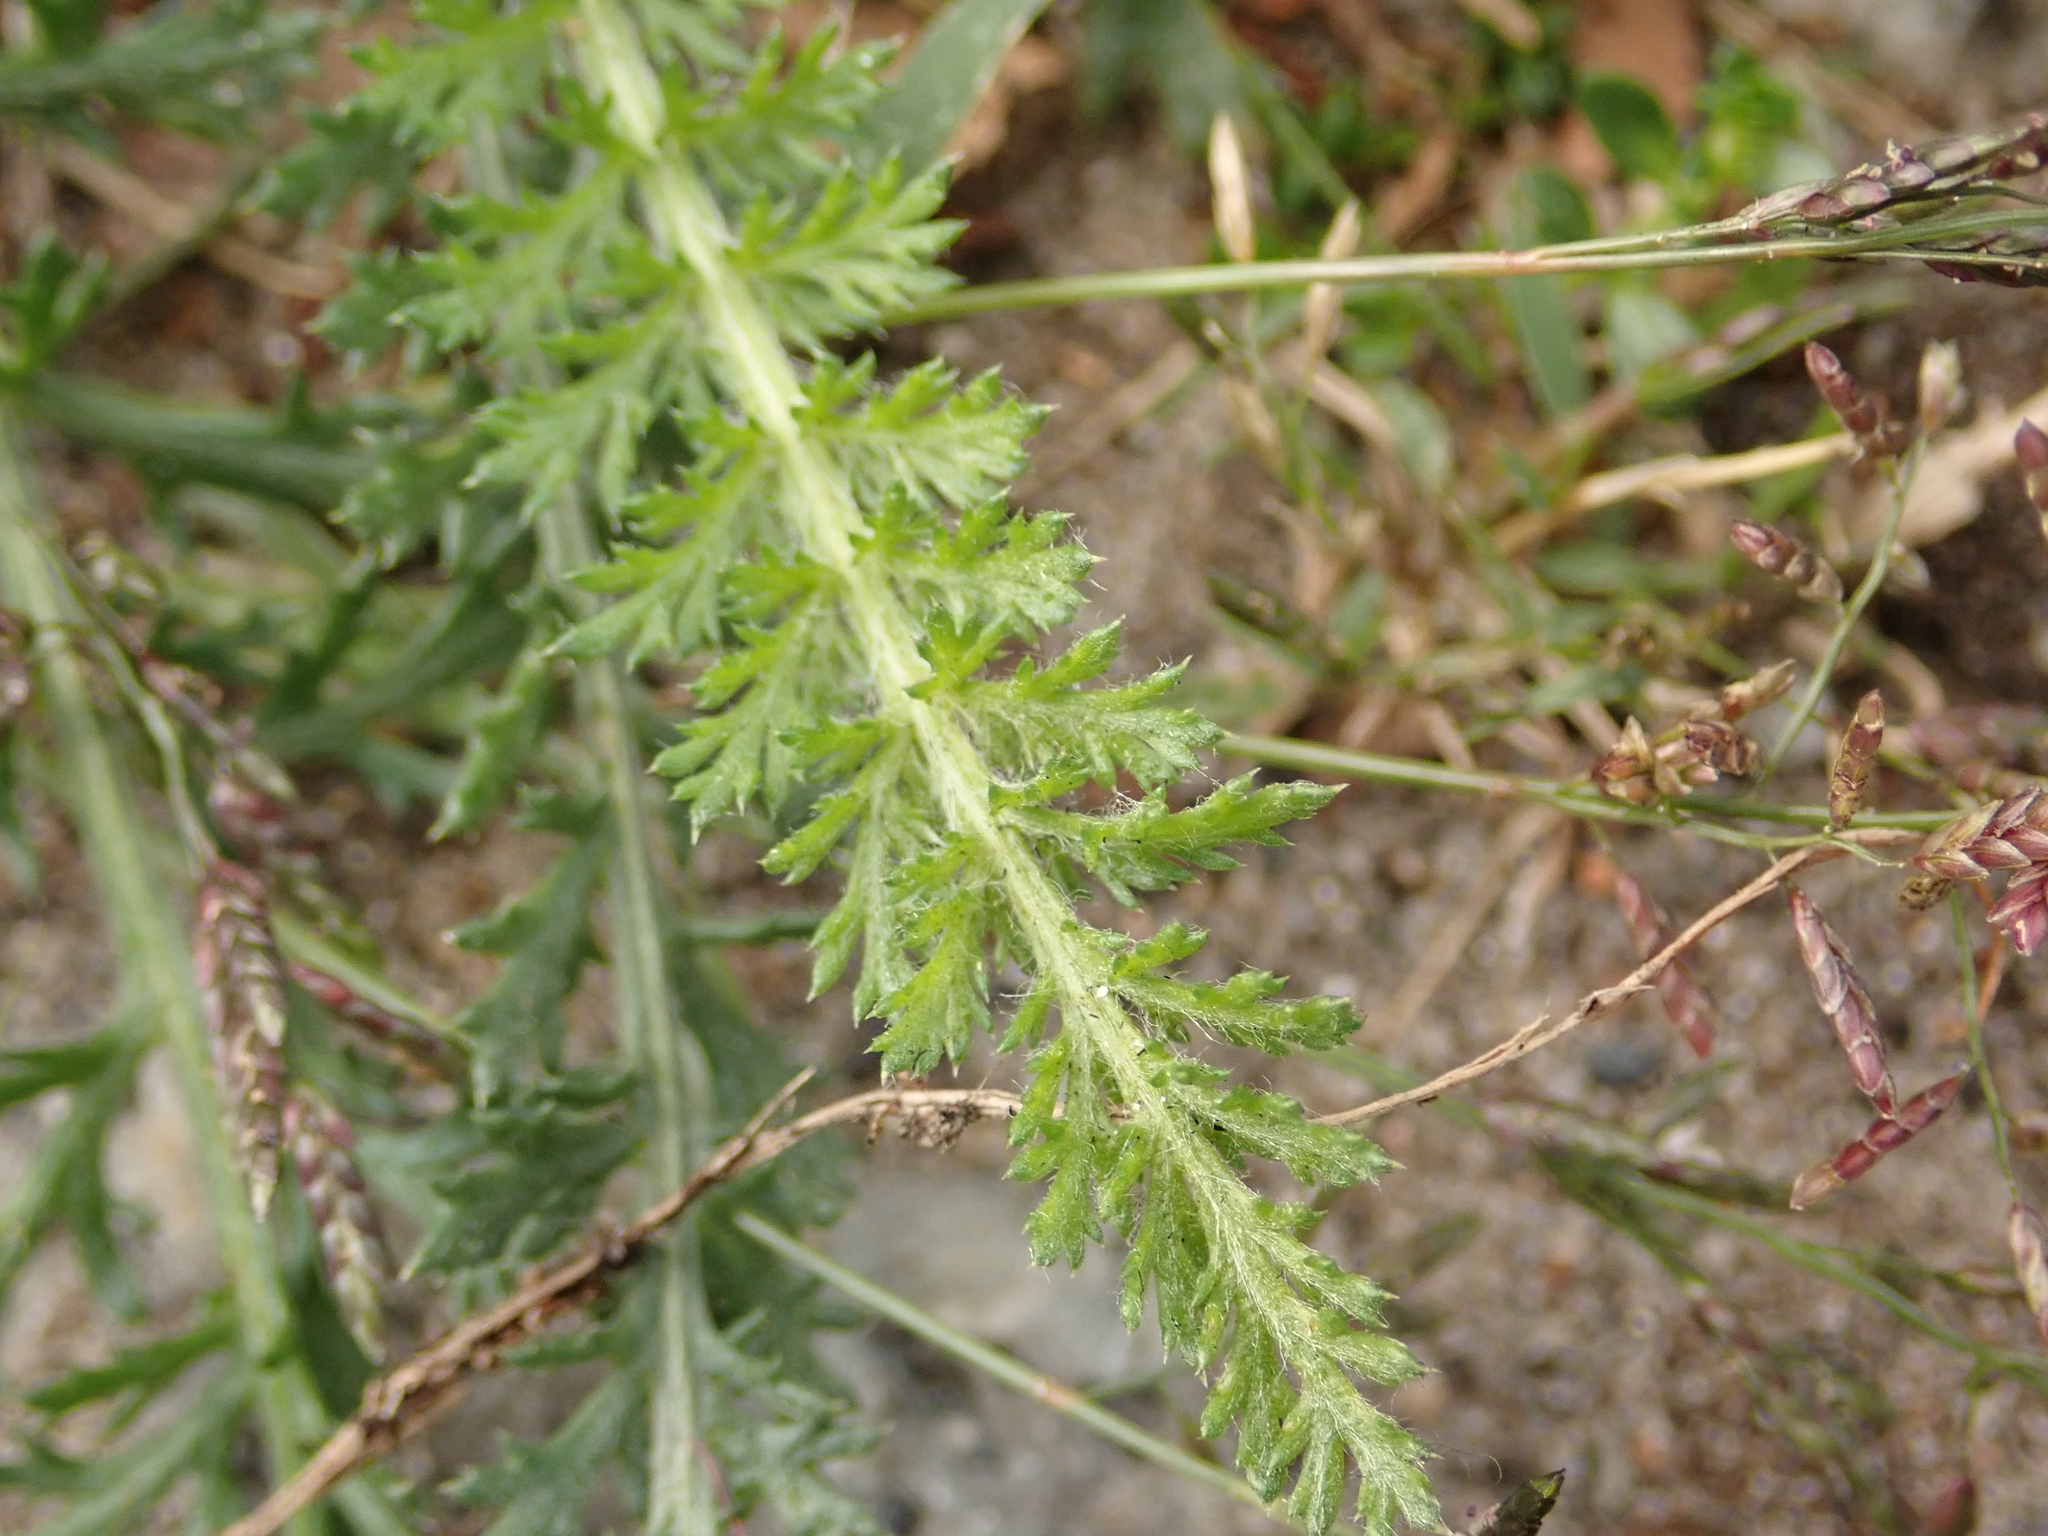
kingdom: Plantae
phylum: Tracheophyta
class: Magnoliopsida
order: Asterales
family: Asteraceae
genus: Achillea
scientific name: Achillea millefolium
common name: Yarrow
